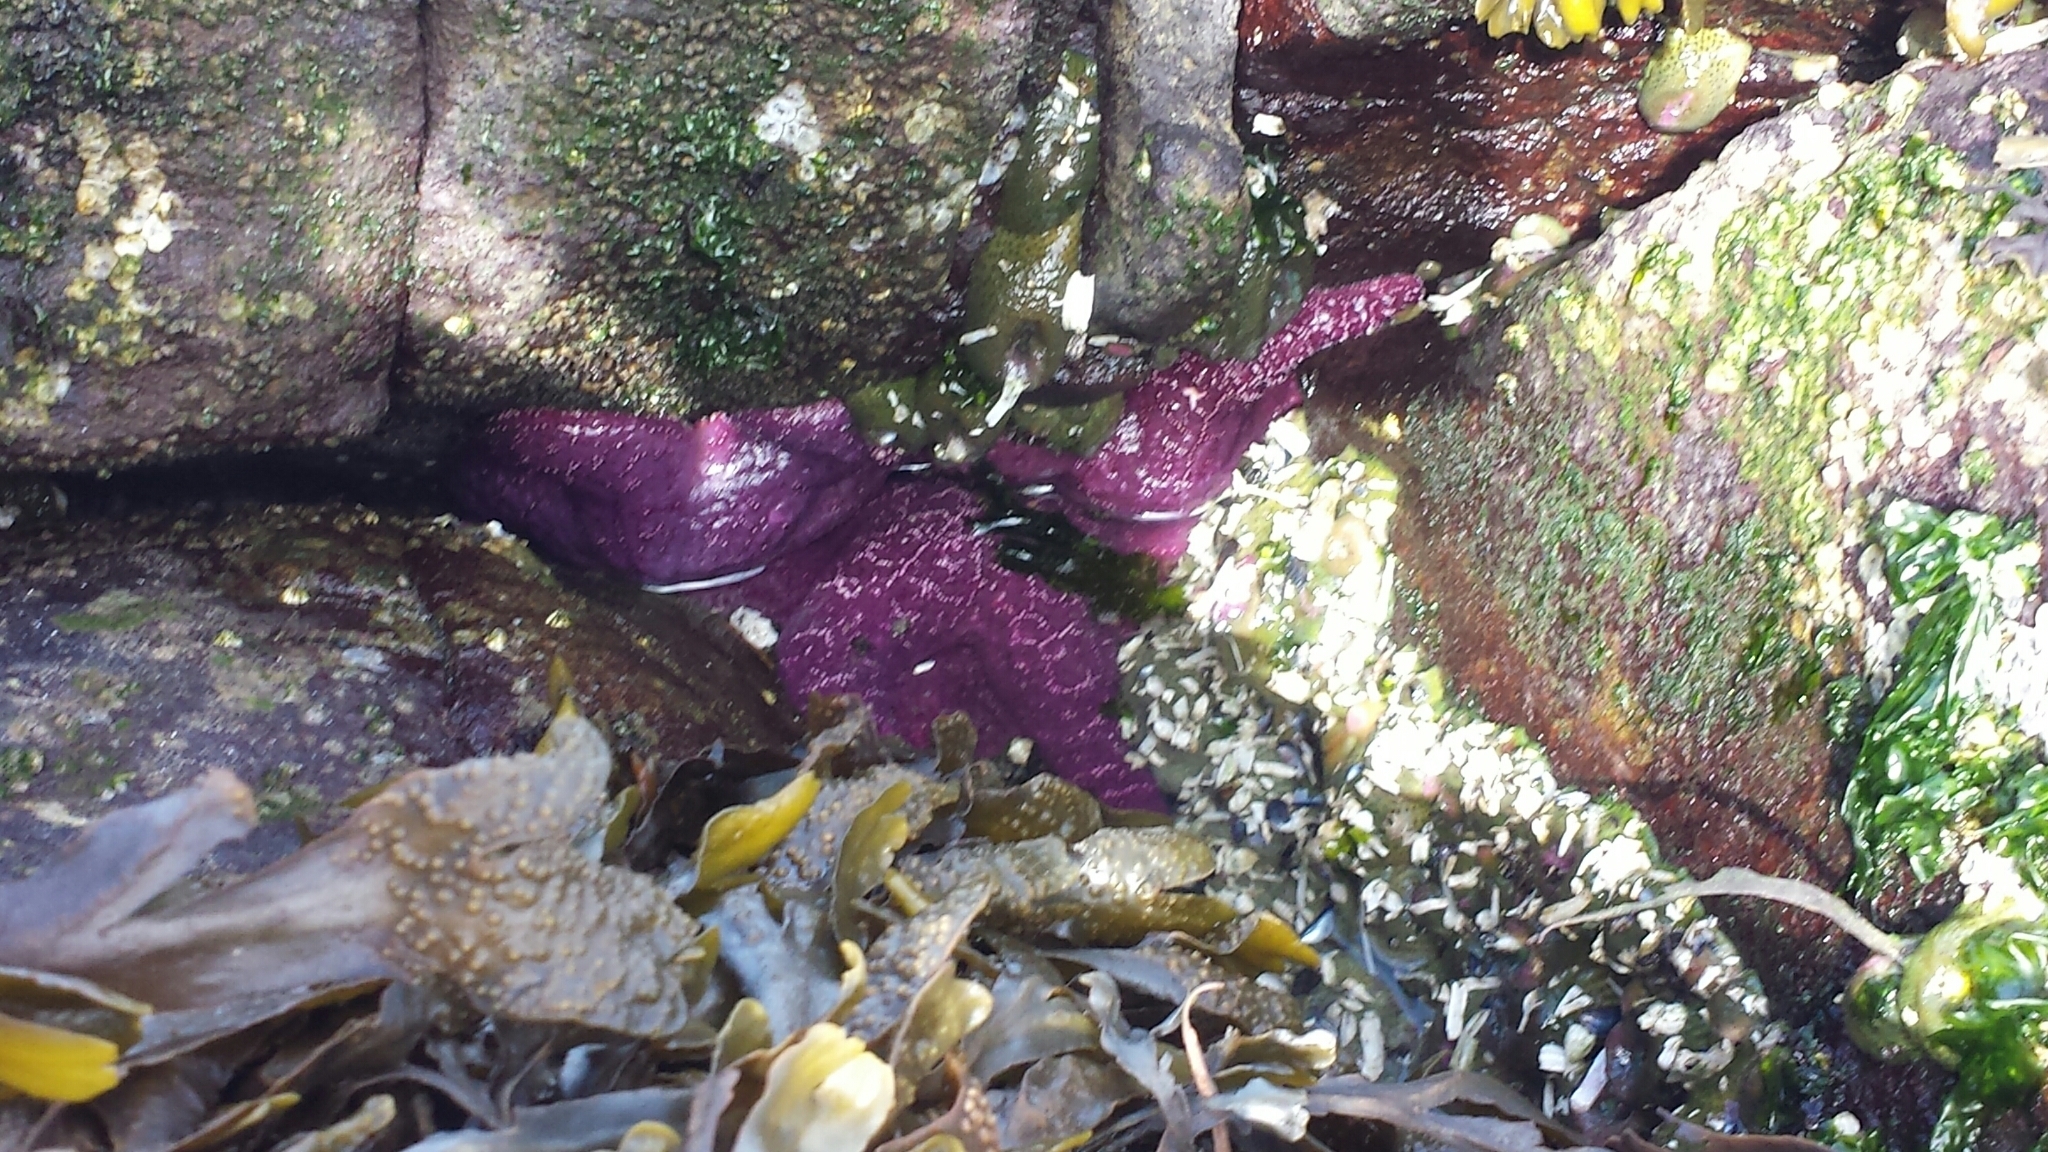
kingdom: Animalia
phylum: Echinodermata
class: Asteroidea
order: Forcipulatida
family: Asteriidae
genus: Pisaster
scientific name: Pisaster ochraceus
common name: Ochre stars
